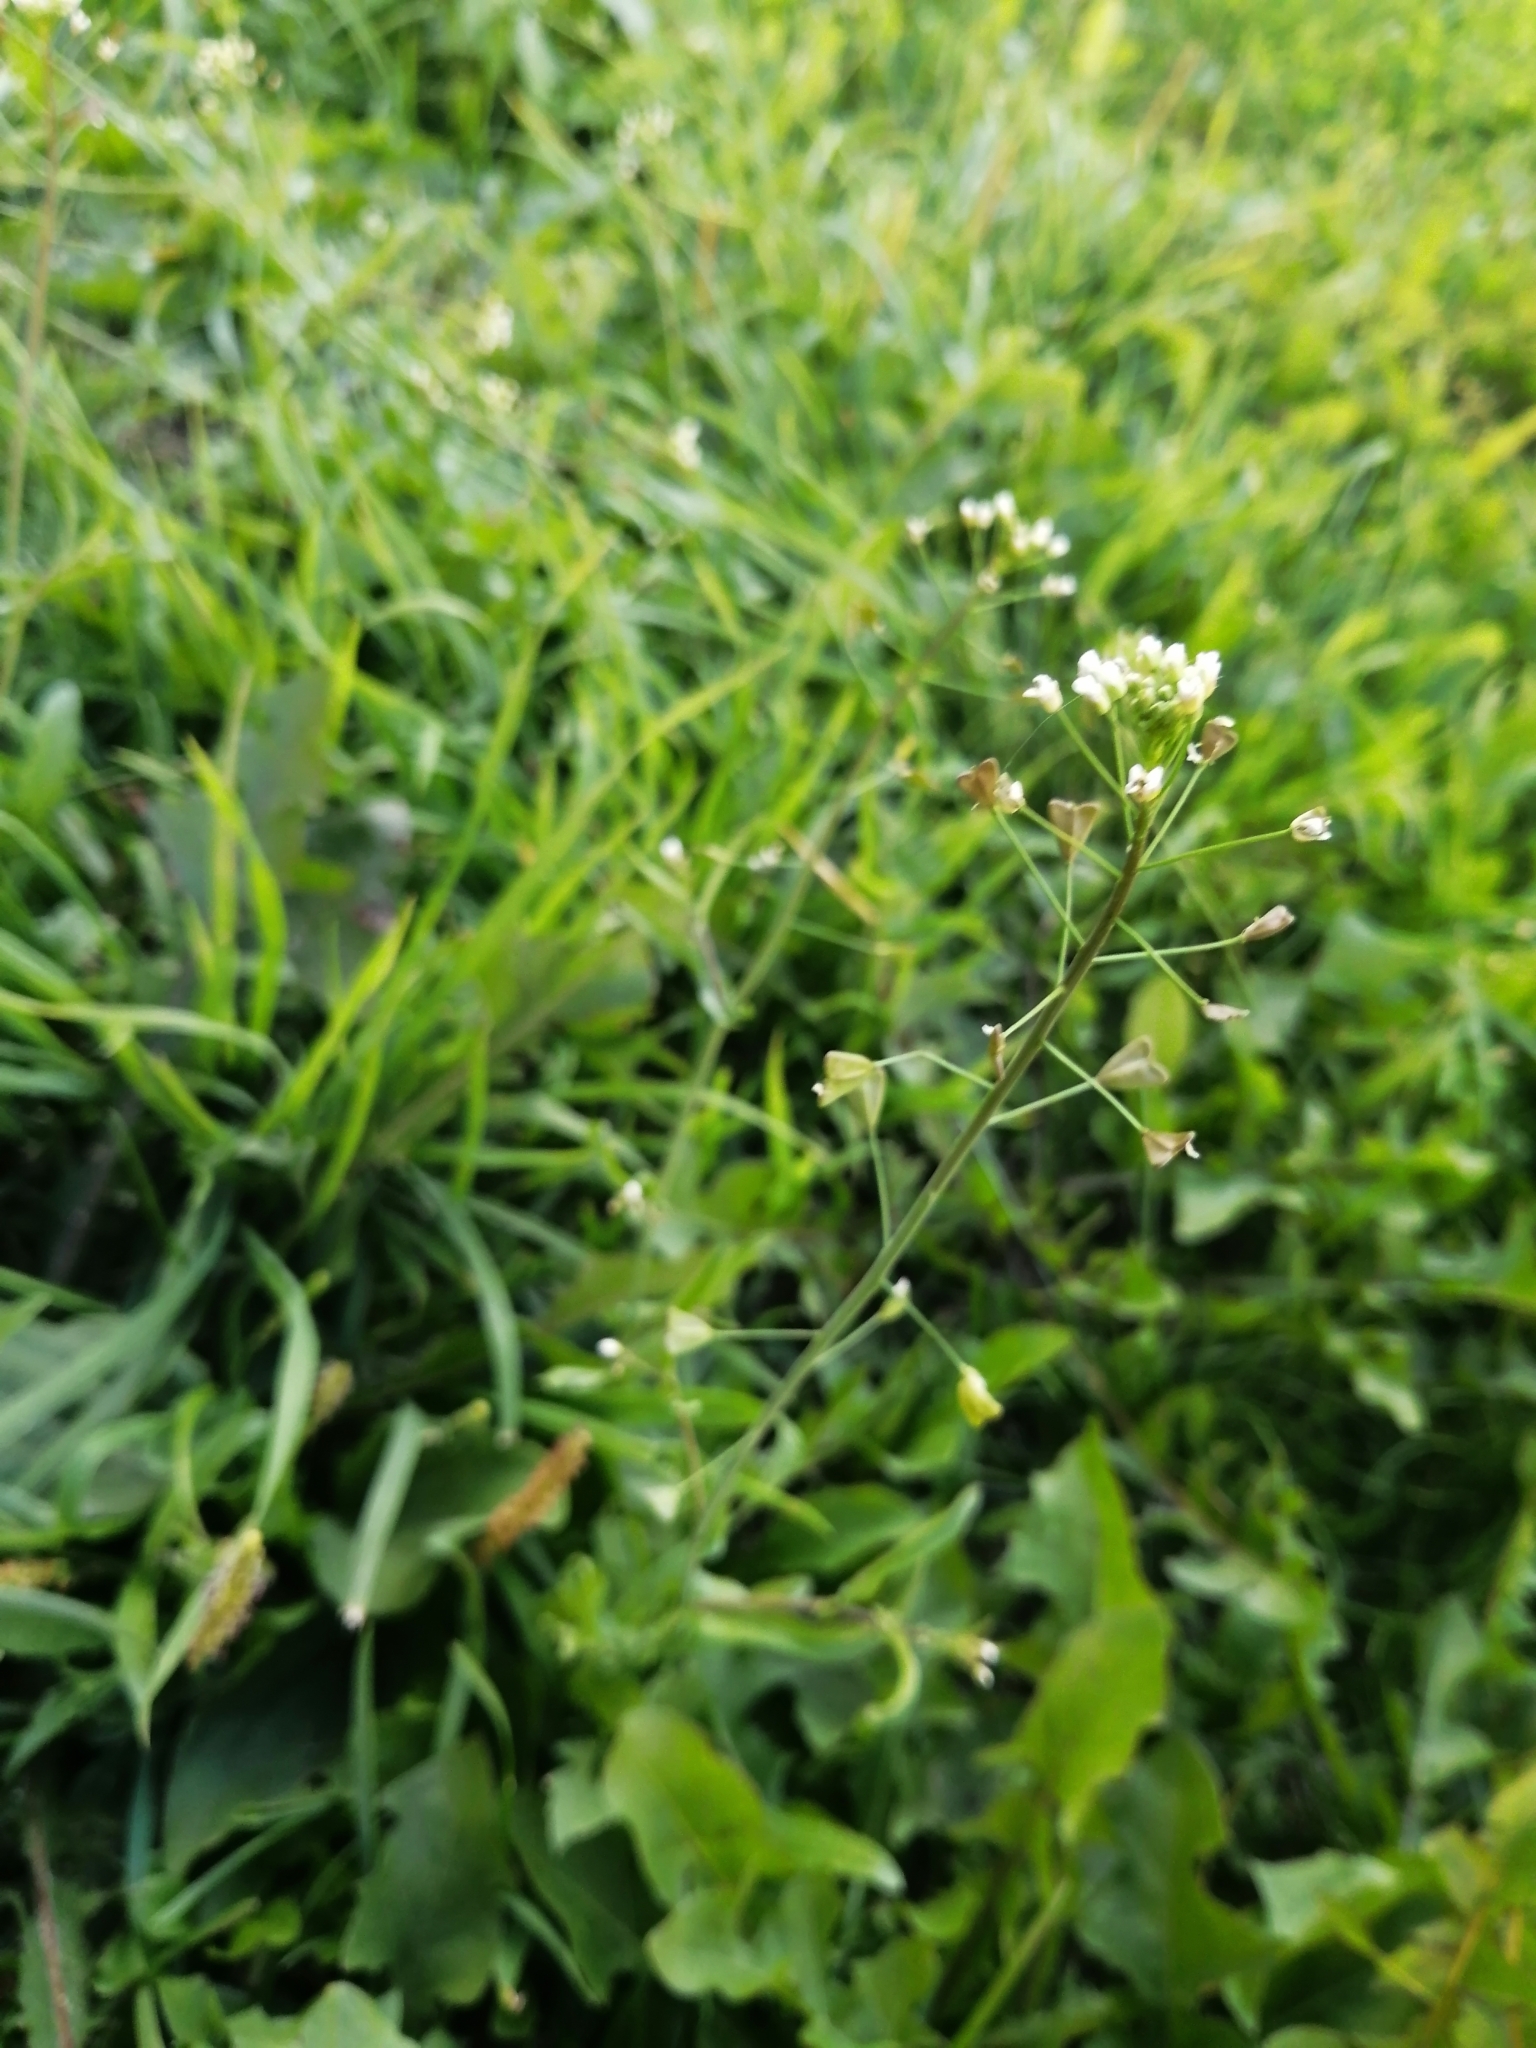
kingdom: Plantae
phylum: Tracheophyta
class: Magnoliopsida
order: Brassicales
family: Brassicaceae
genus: Capsella
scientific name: Capsella bursa-pastoris
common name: Shepherd's purse
